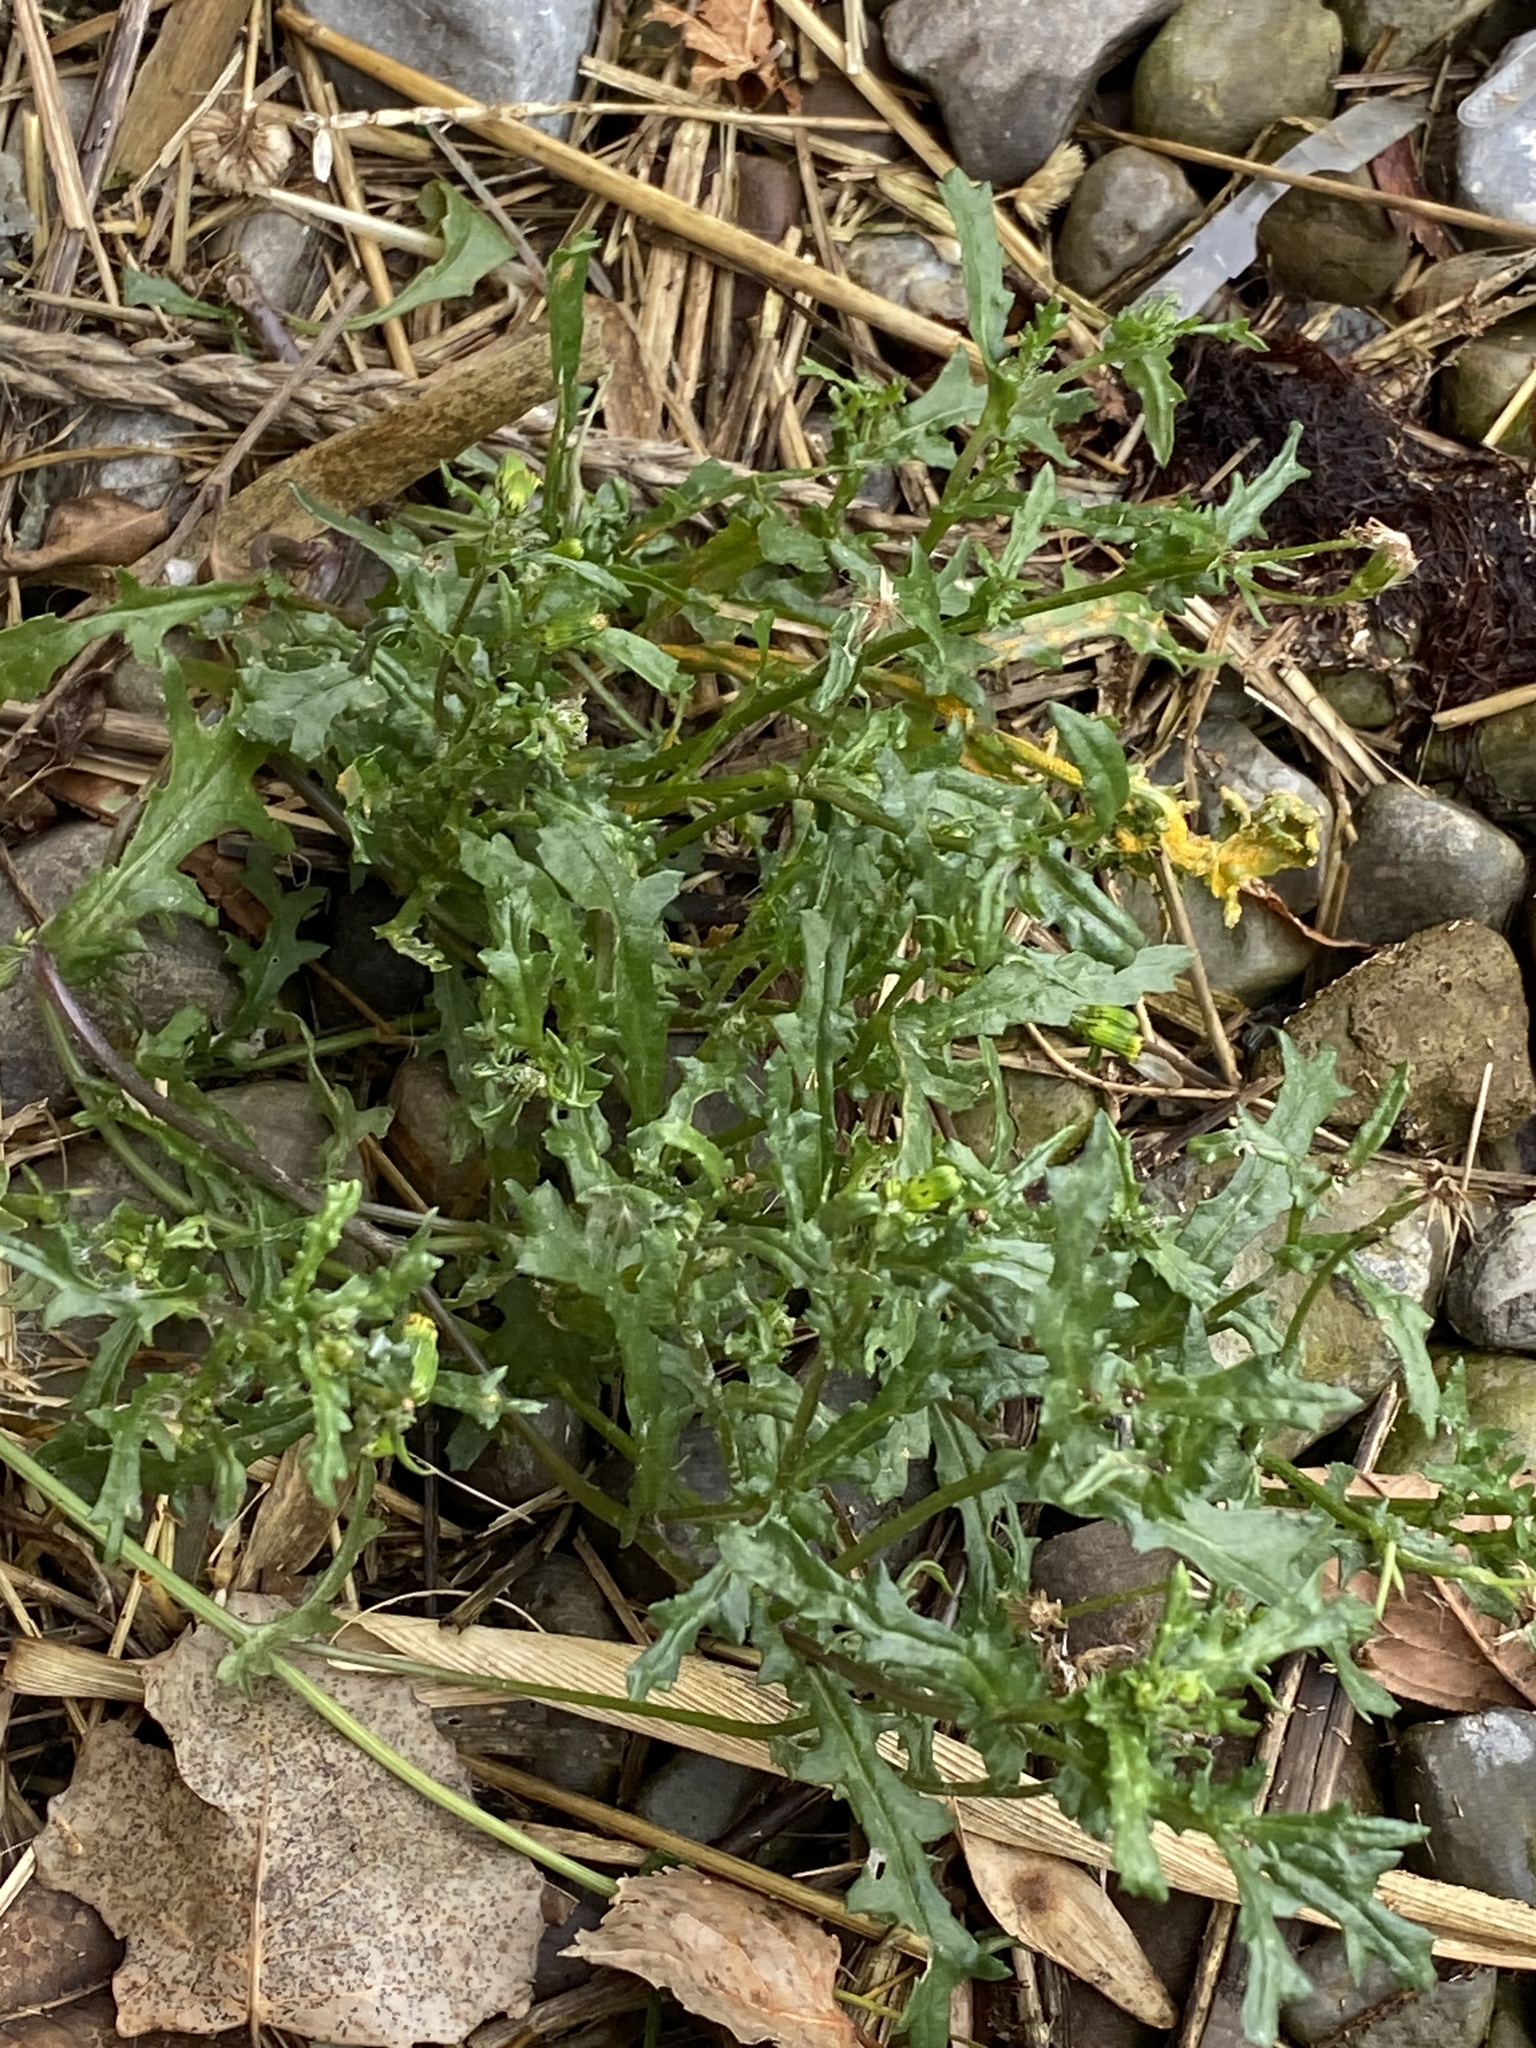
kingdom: Plantae
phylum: Tracheophyta
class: Magnoliopsida
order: Asterales
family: Asteraceae
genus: Senecio
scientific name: Senecio vulgaris
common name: Old-man-in-the-spring
